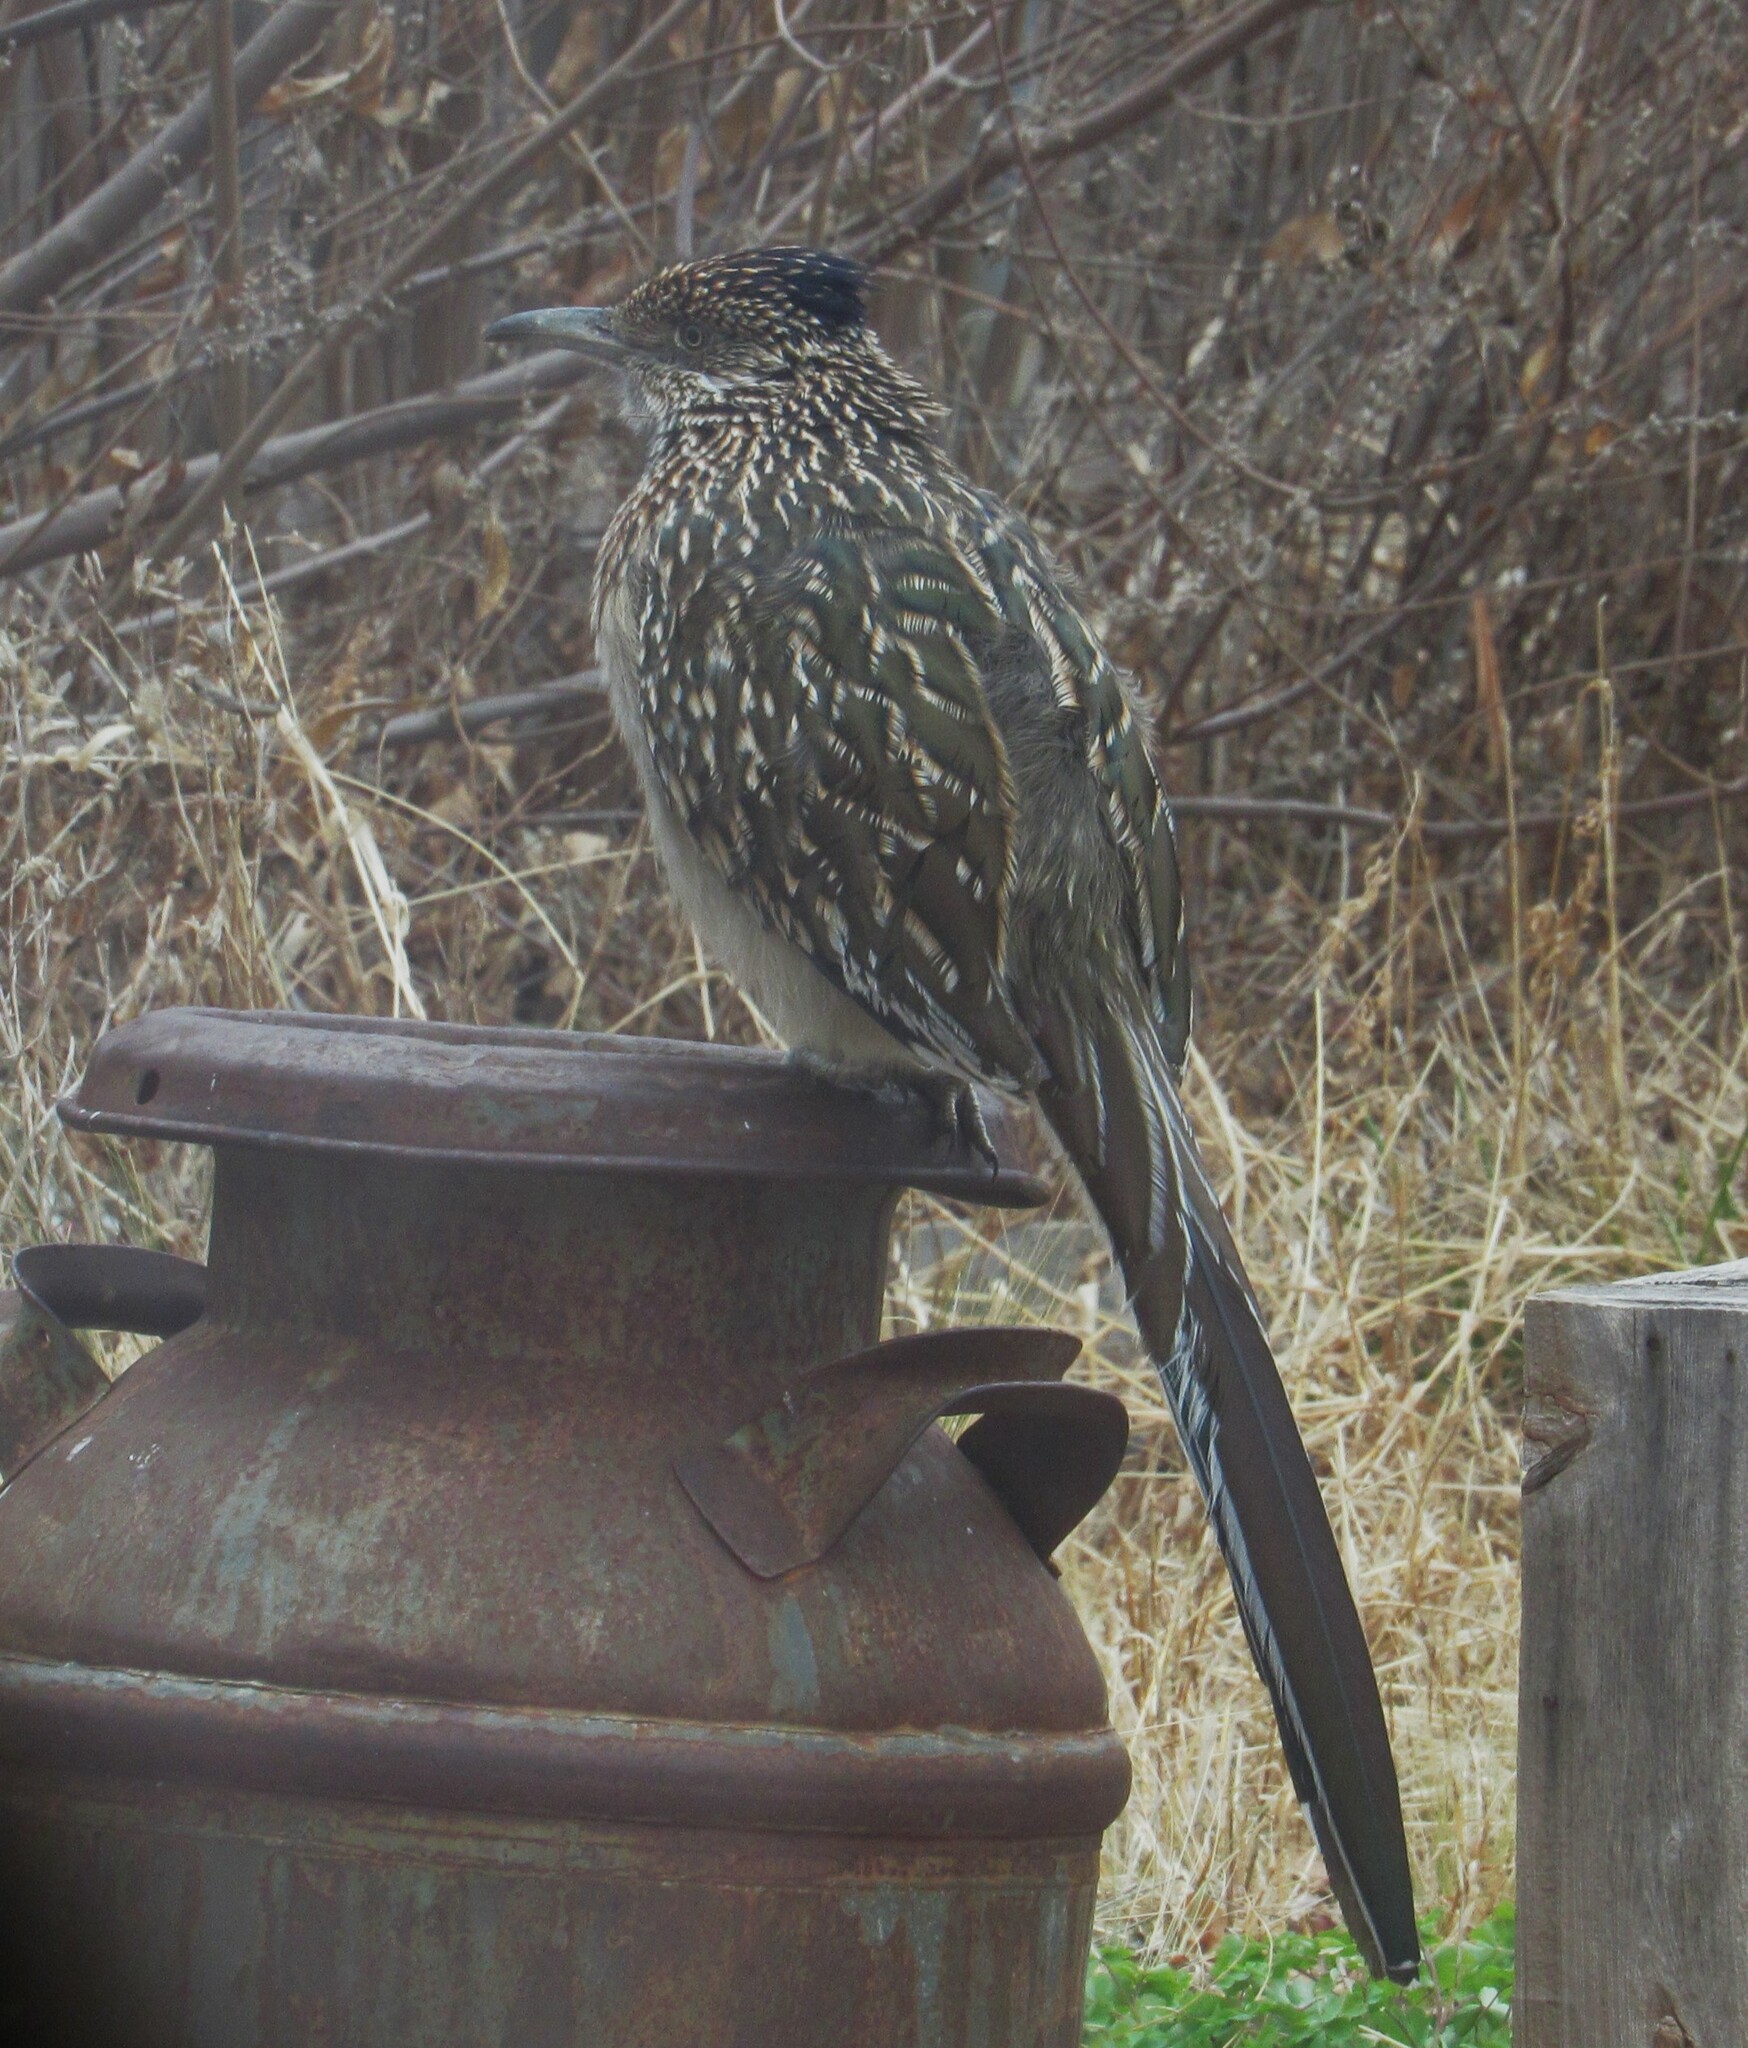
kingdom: Animalia
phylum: Chordata
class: Aves
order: Cuculiformes
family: Cuculidae
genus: Geococcyx
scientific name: Geococcyx californianus
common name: Greater roadrunner
